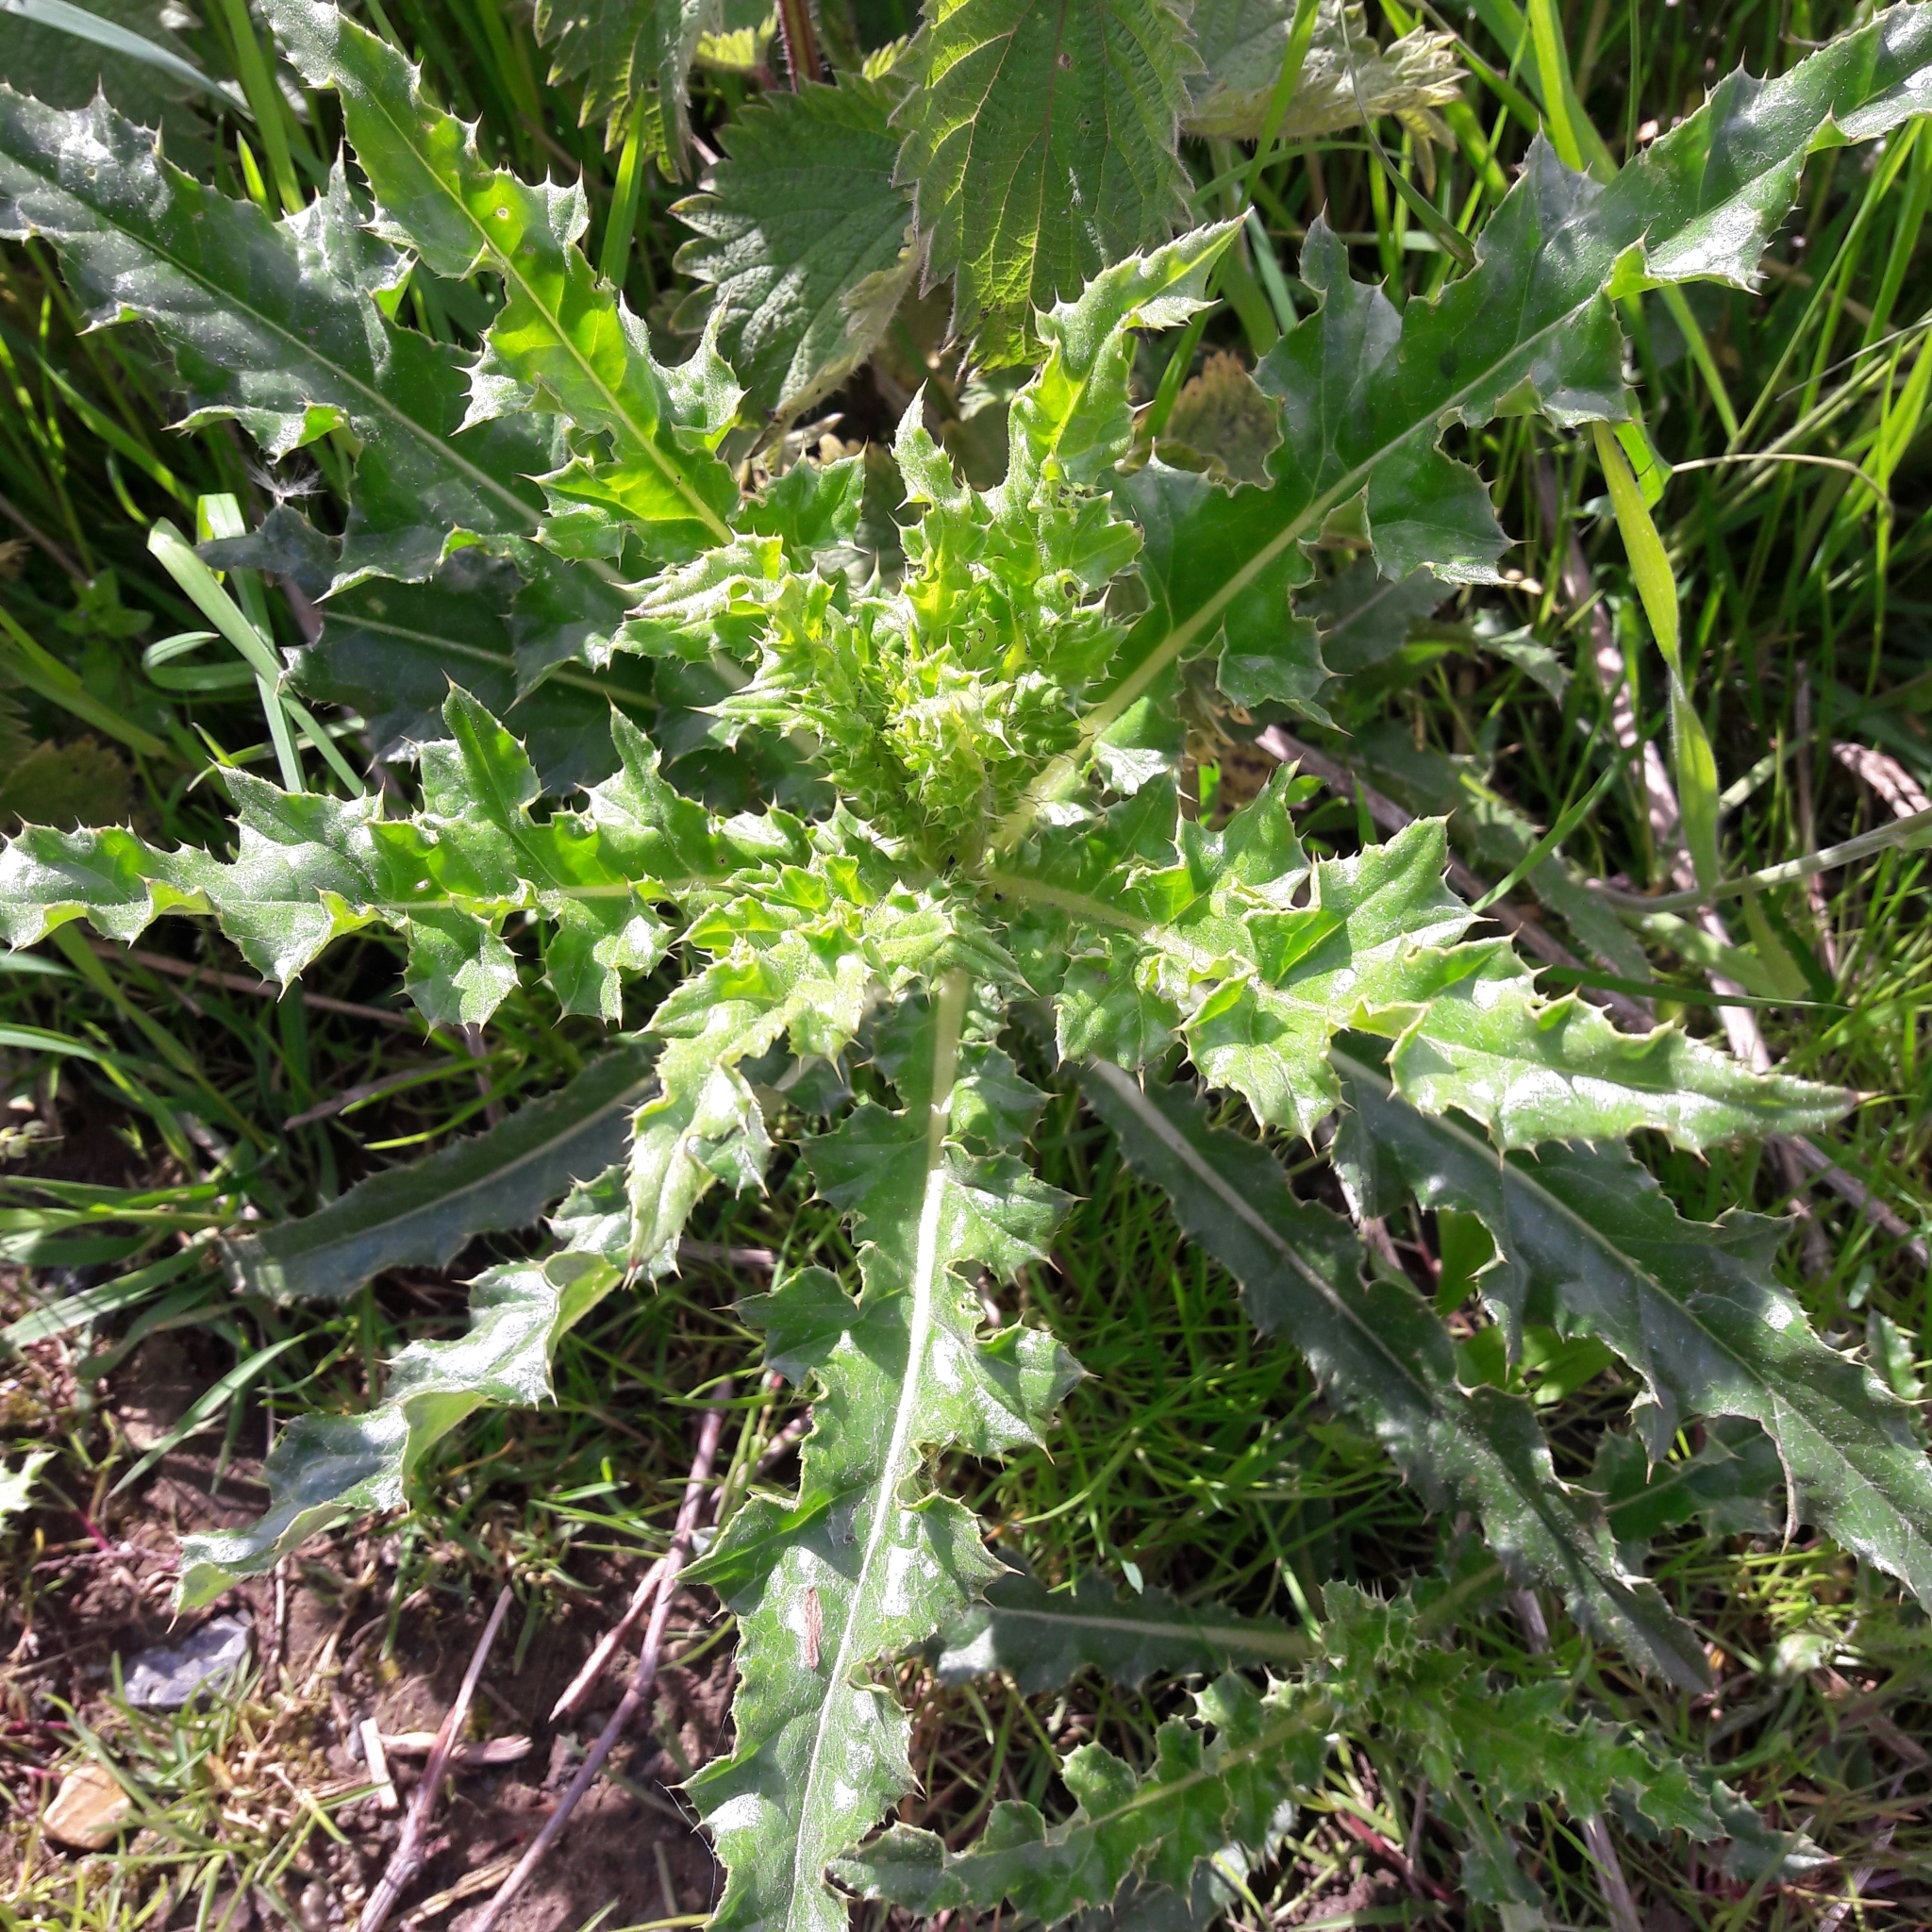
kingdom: Plantae
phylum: Tracheophyta
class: Magnoliopsida
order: Asterales
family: Asteraceae
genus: Cirsium
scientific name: Cirsium arvense
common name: Creeping thistle
